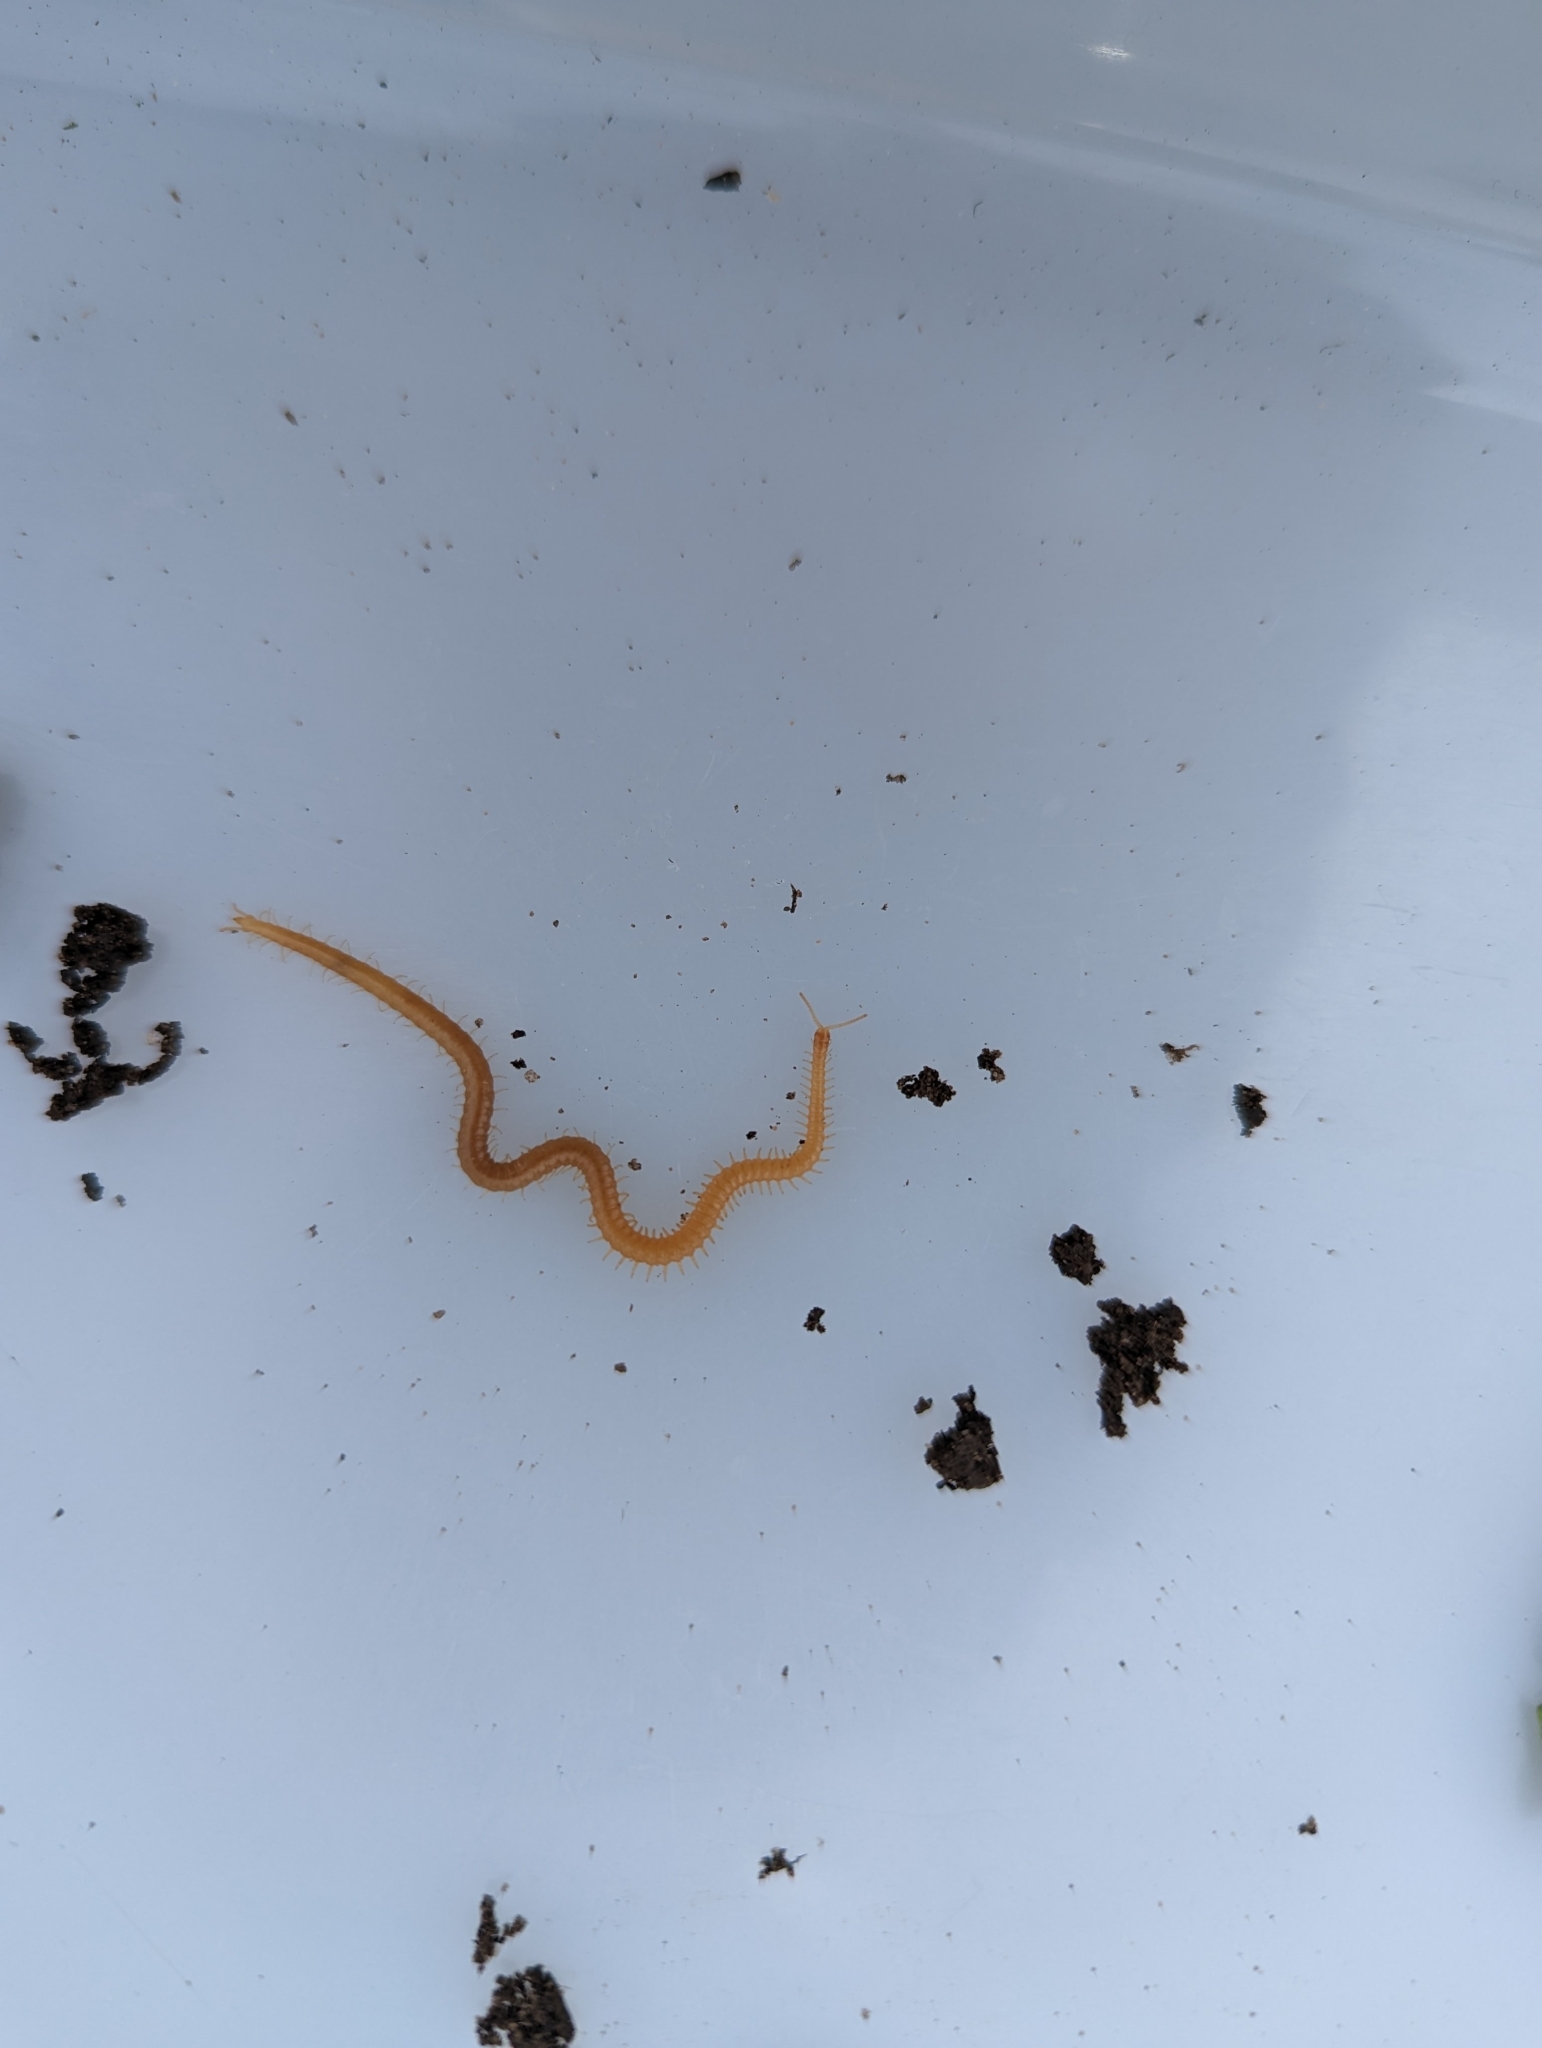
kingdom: Animalia
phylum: Arthropoda
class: Chilopoda
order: Geophilomorpha
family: Himantariidae
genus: Stigmatogaster
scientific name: Stigmatogaster subterranea
